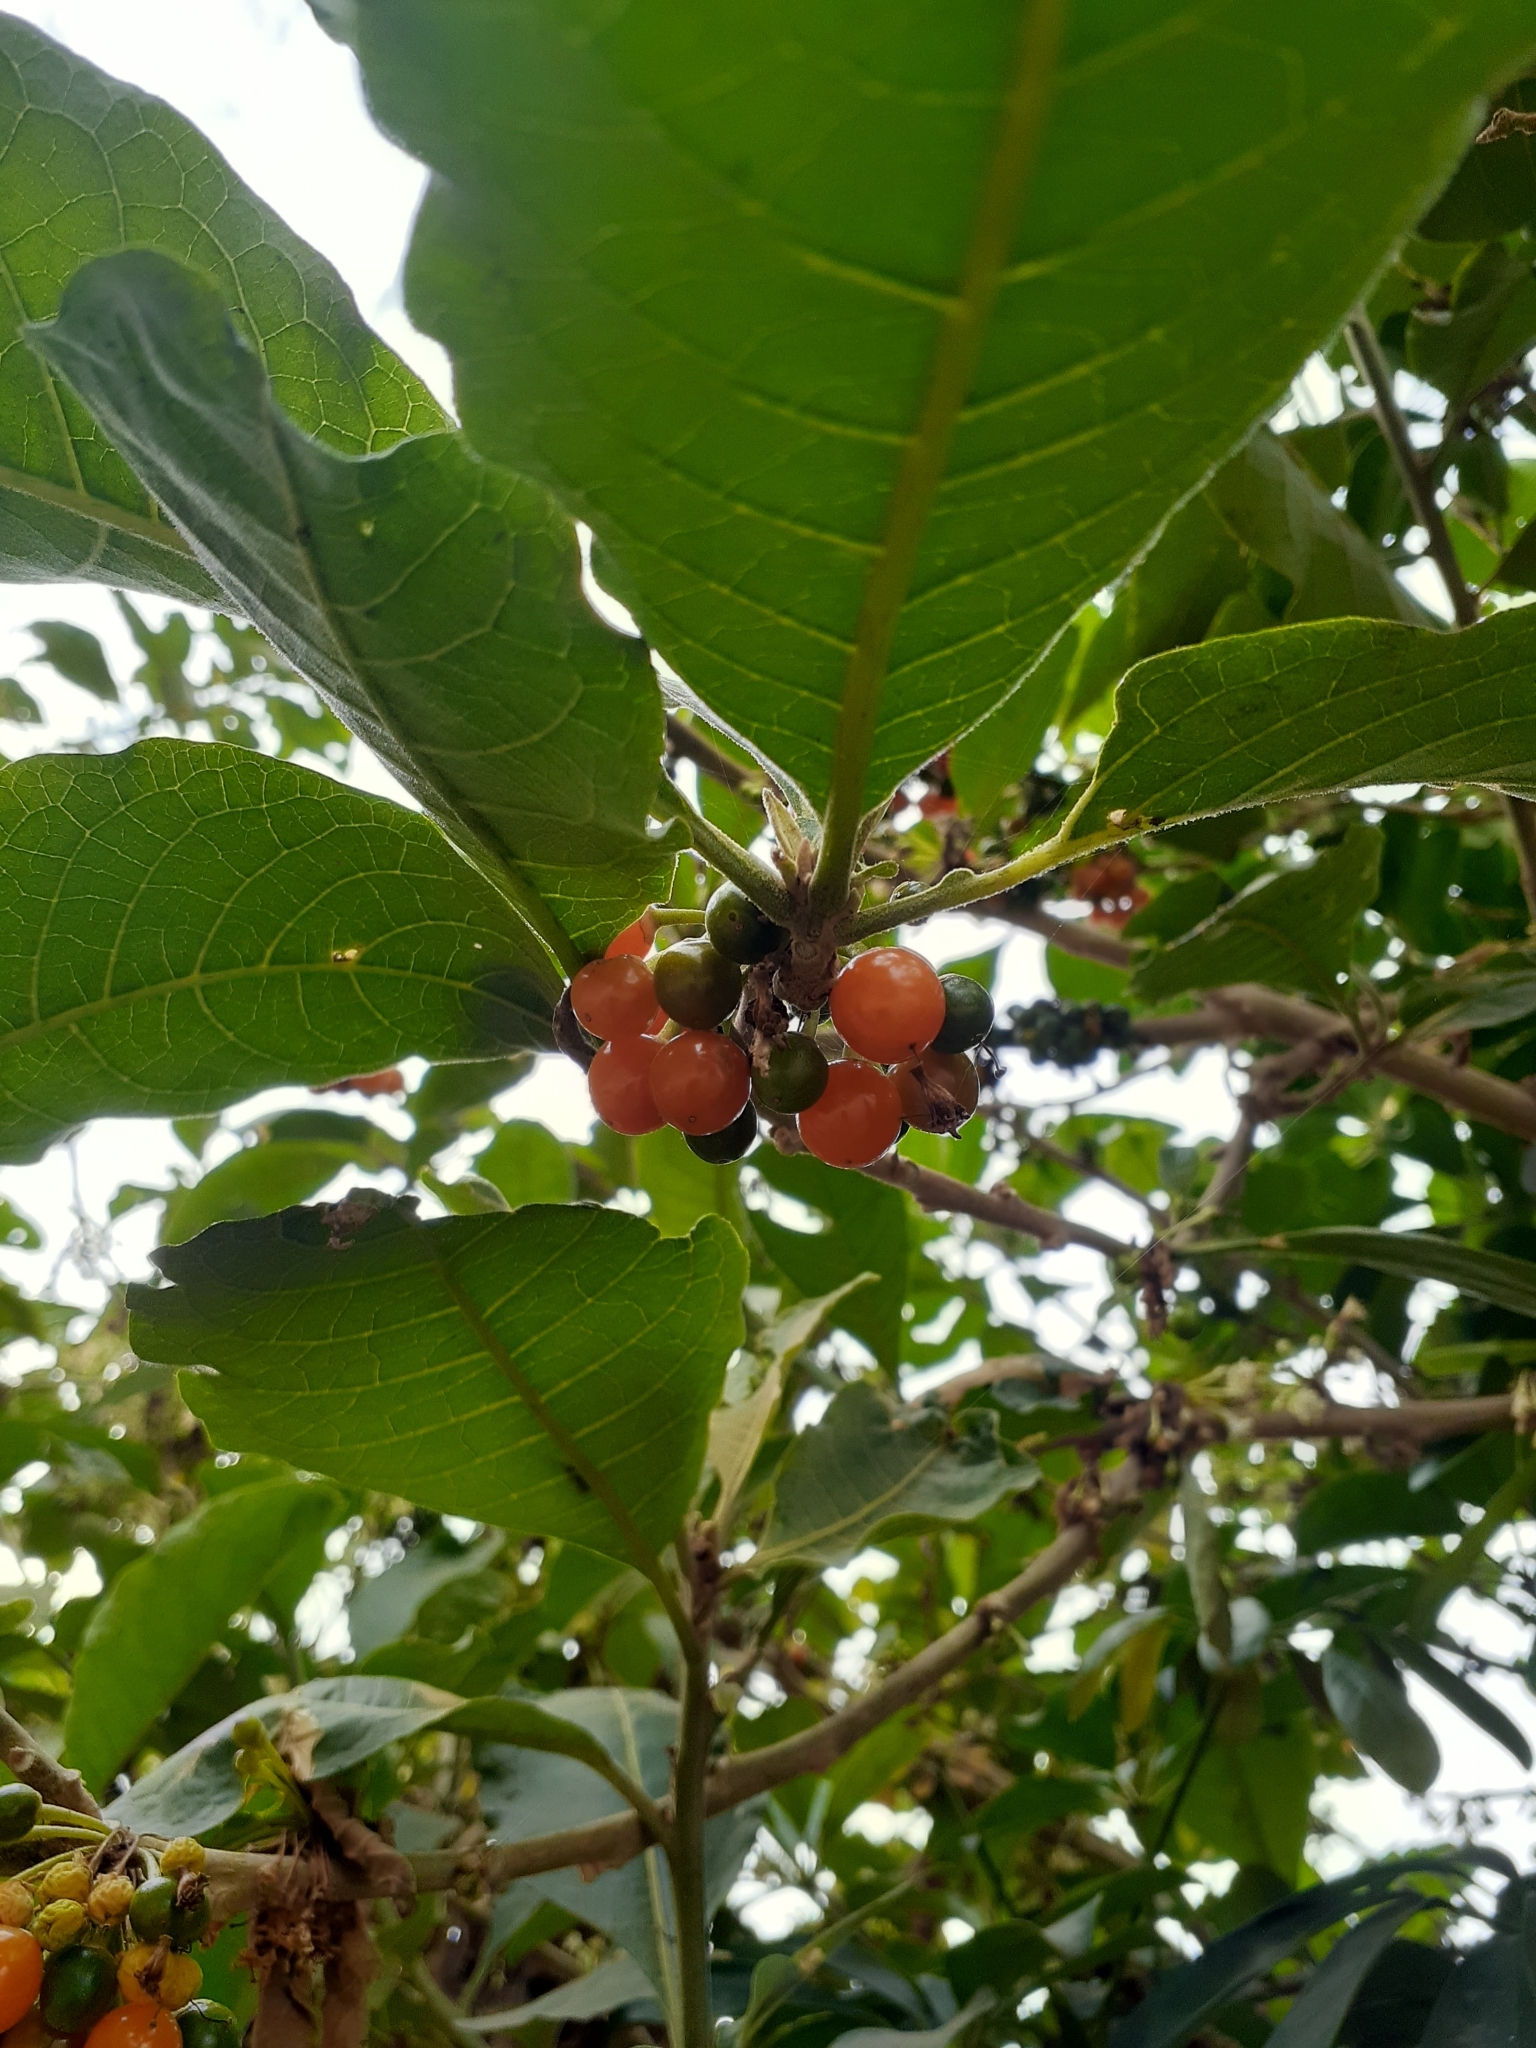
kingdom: Plantae
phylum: Tracheophyta
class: Magnoliopsida
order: Solanales
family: Solanaceae
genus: Iochroma
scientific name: Iochroma arborescens
